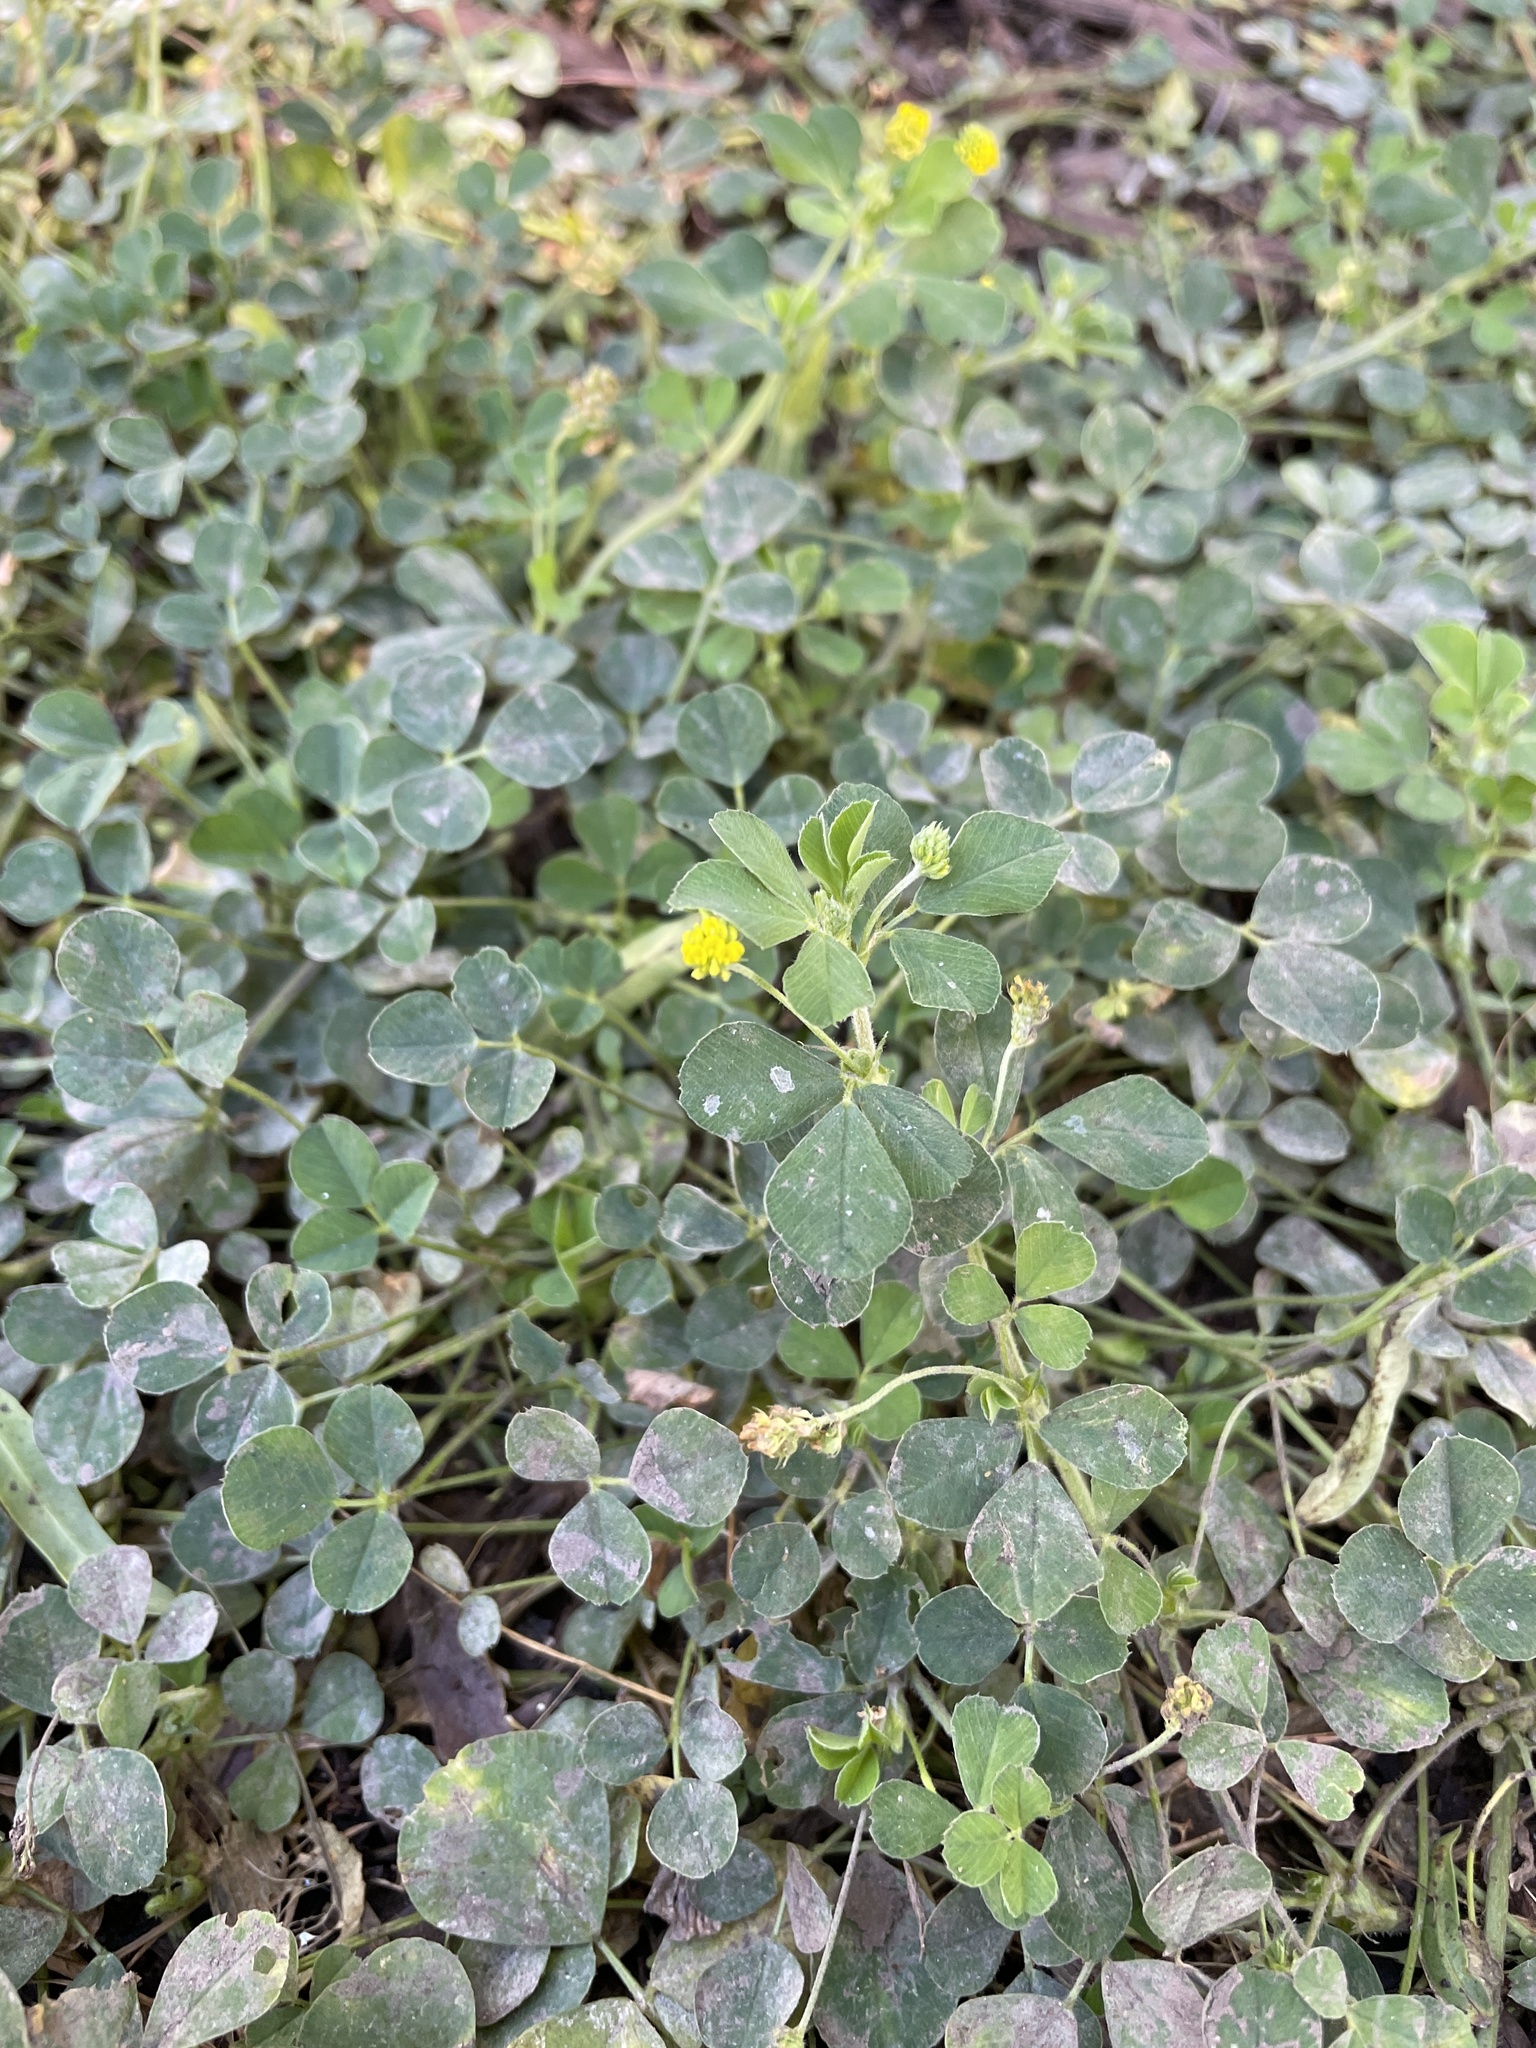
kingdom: Plantae
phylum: Tracheophyta
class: Magnoliopsida
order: Fabales
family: Fabaceae
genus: Medicago
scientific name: Medicago lupulina
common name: Black medick
